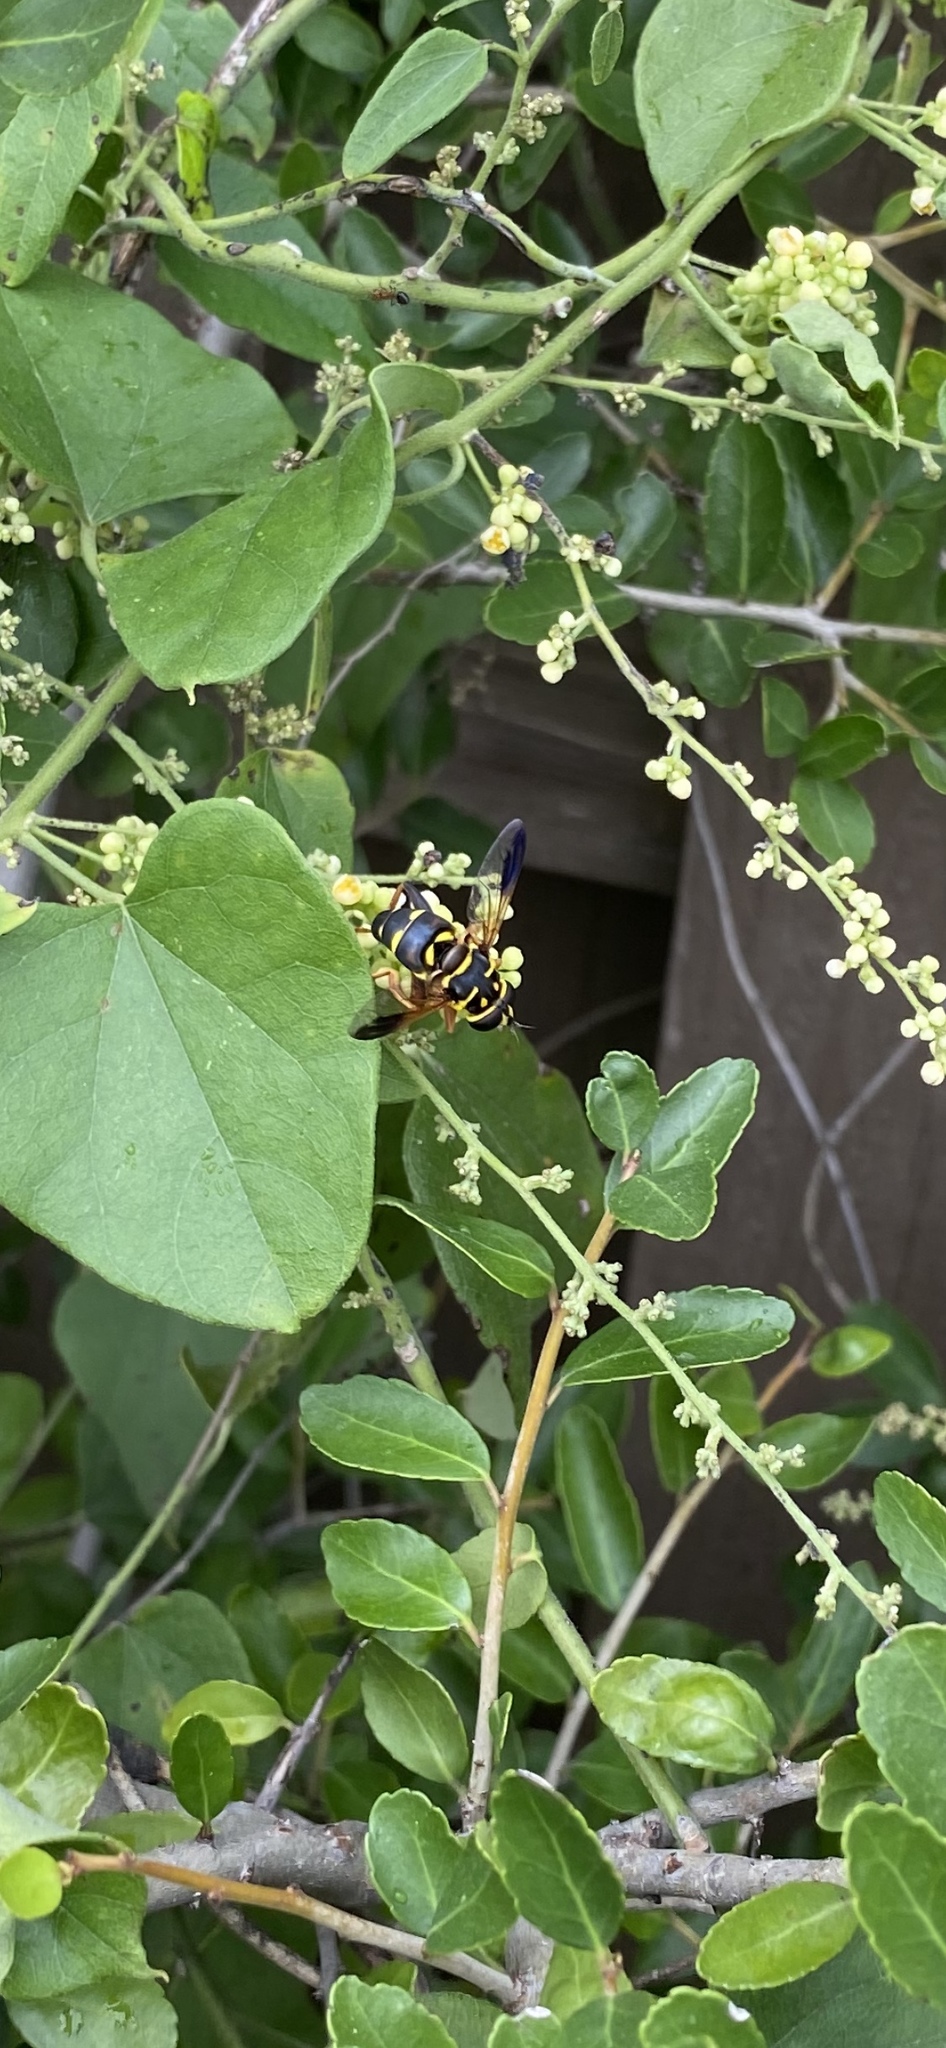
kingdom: Animalia
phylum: Arthropoda
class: Insecta
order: Diptera
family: Syrphidae
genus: Meromacrus
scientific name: Meromacrus acutus
